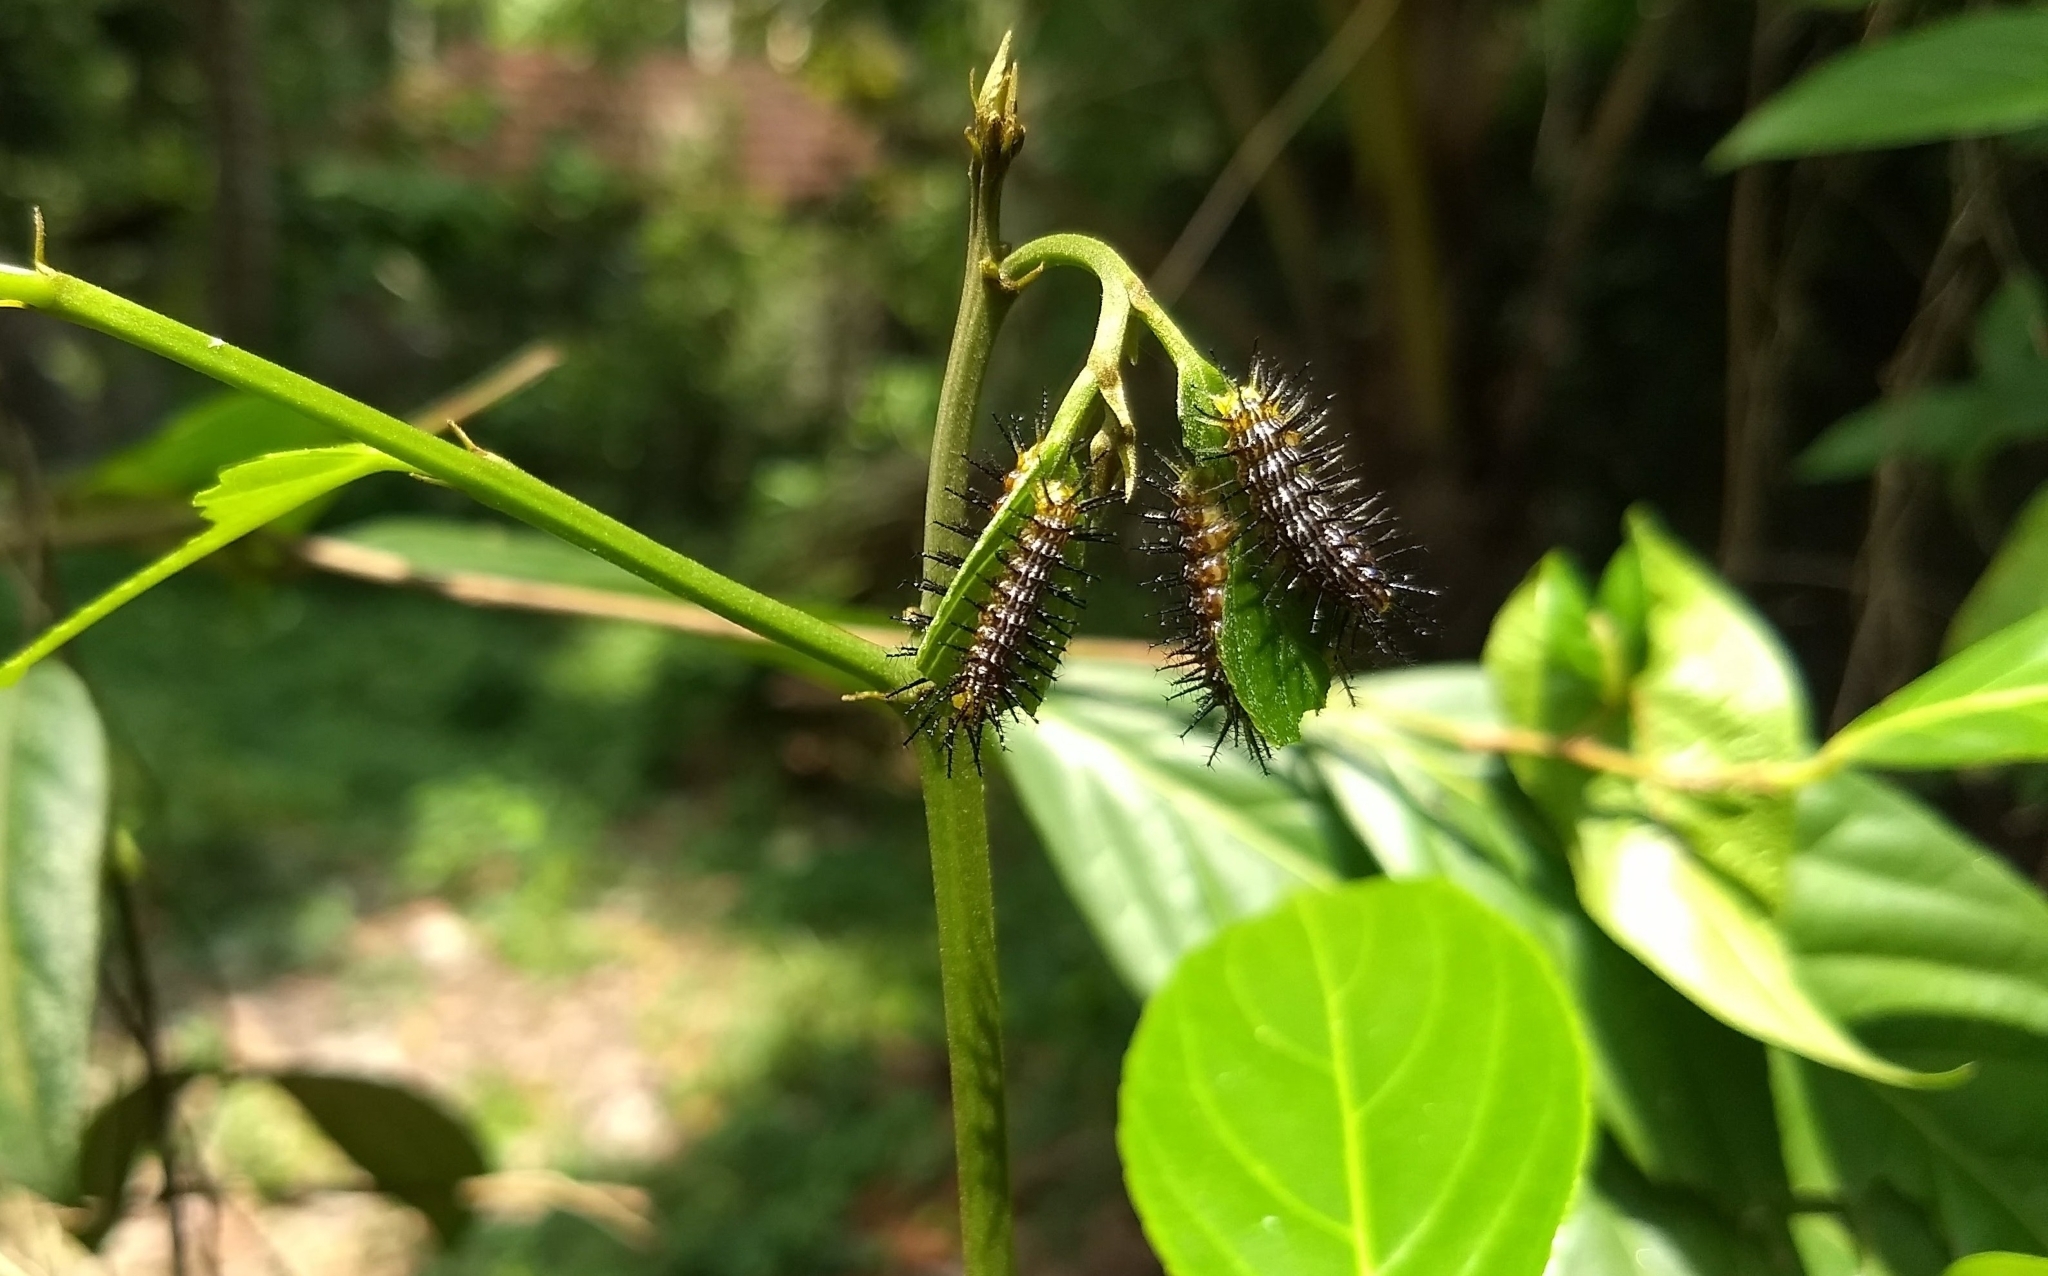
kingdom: Animalia
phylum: Arthropoda
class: Insecta
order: Lepidoptera
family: Nymphalidae
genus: Cirrochroa
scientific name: Cirrochroa thais
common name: Tamil yeoman
